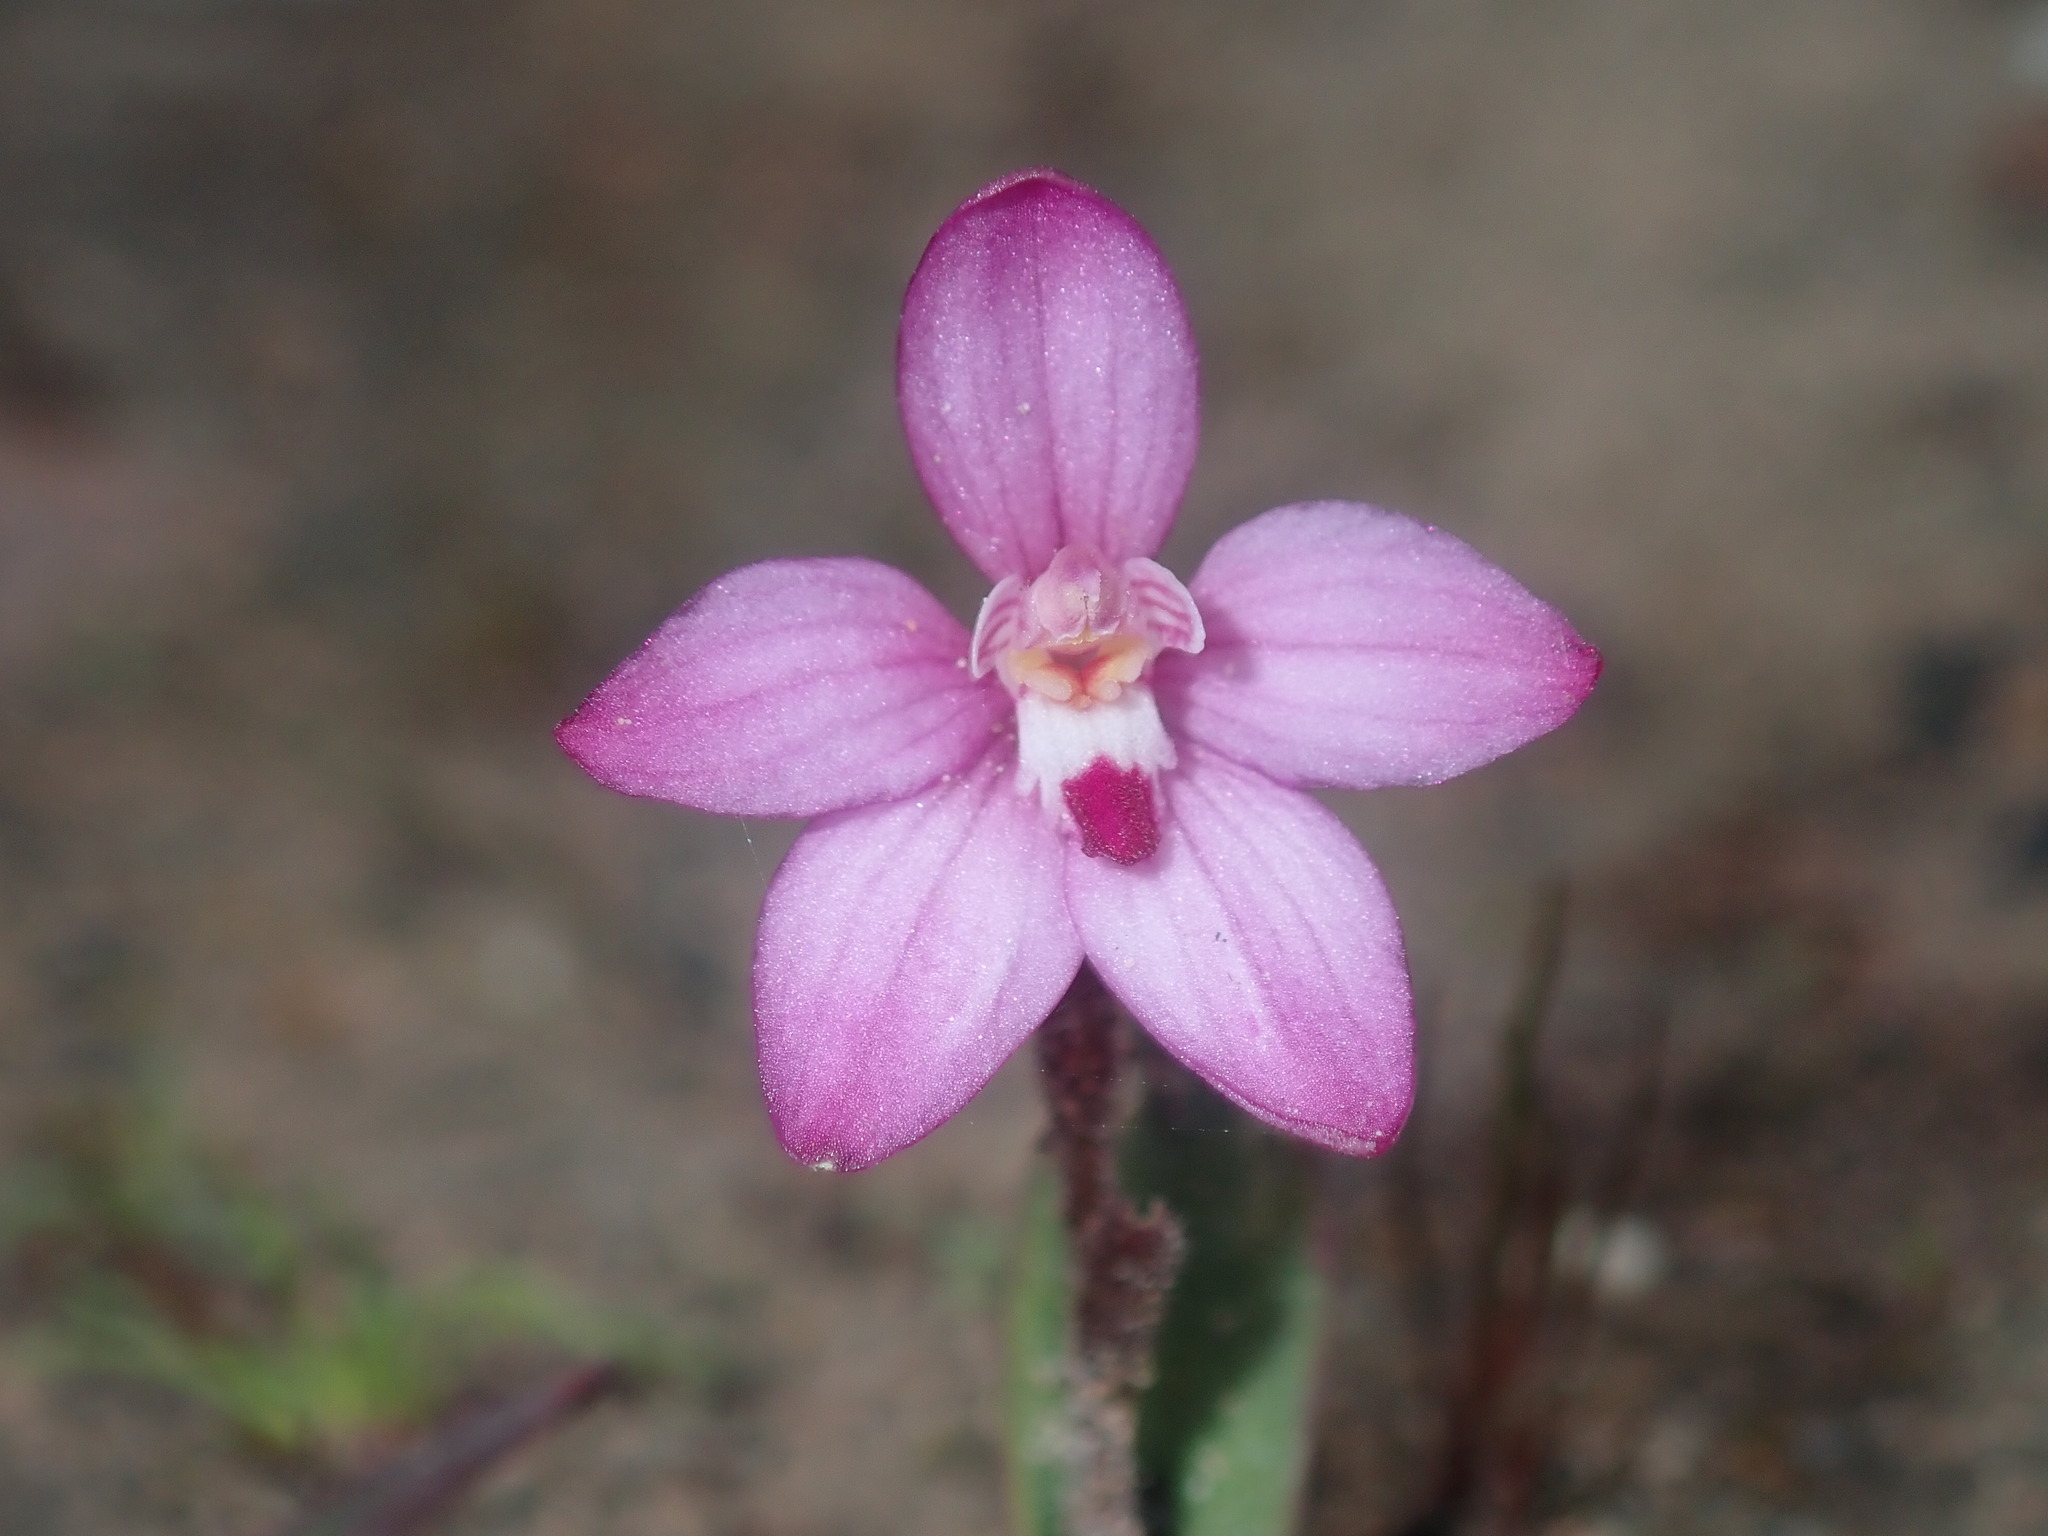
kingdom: Plantae
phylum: Tracheophyta
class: Liliopsida
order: Asparagales
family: Orchidaceae
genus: Caladenia
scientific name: Caladenia reptans
